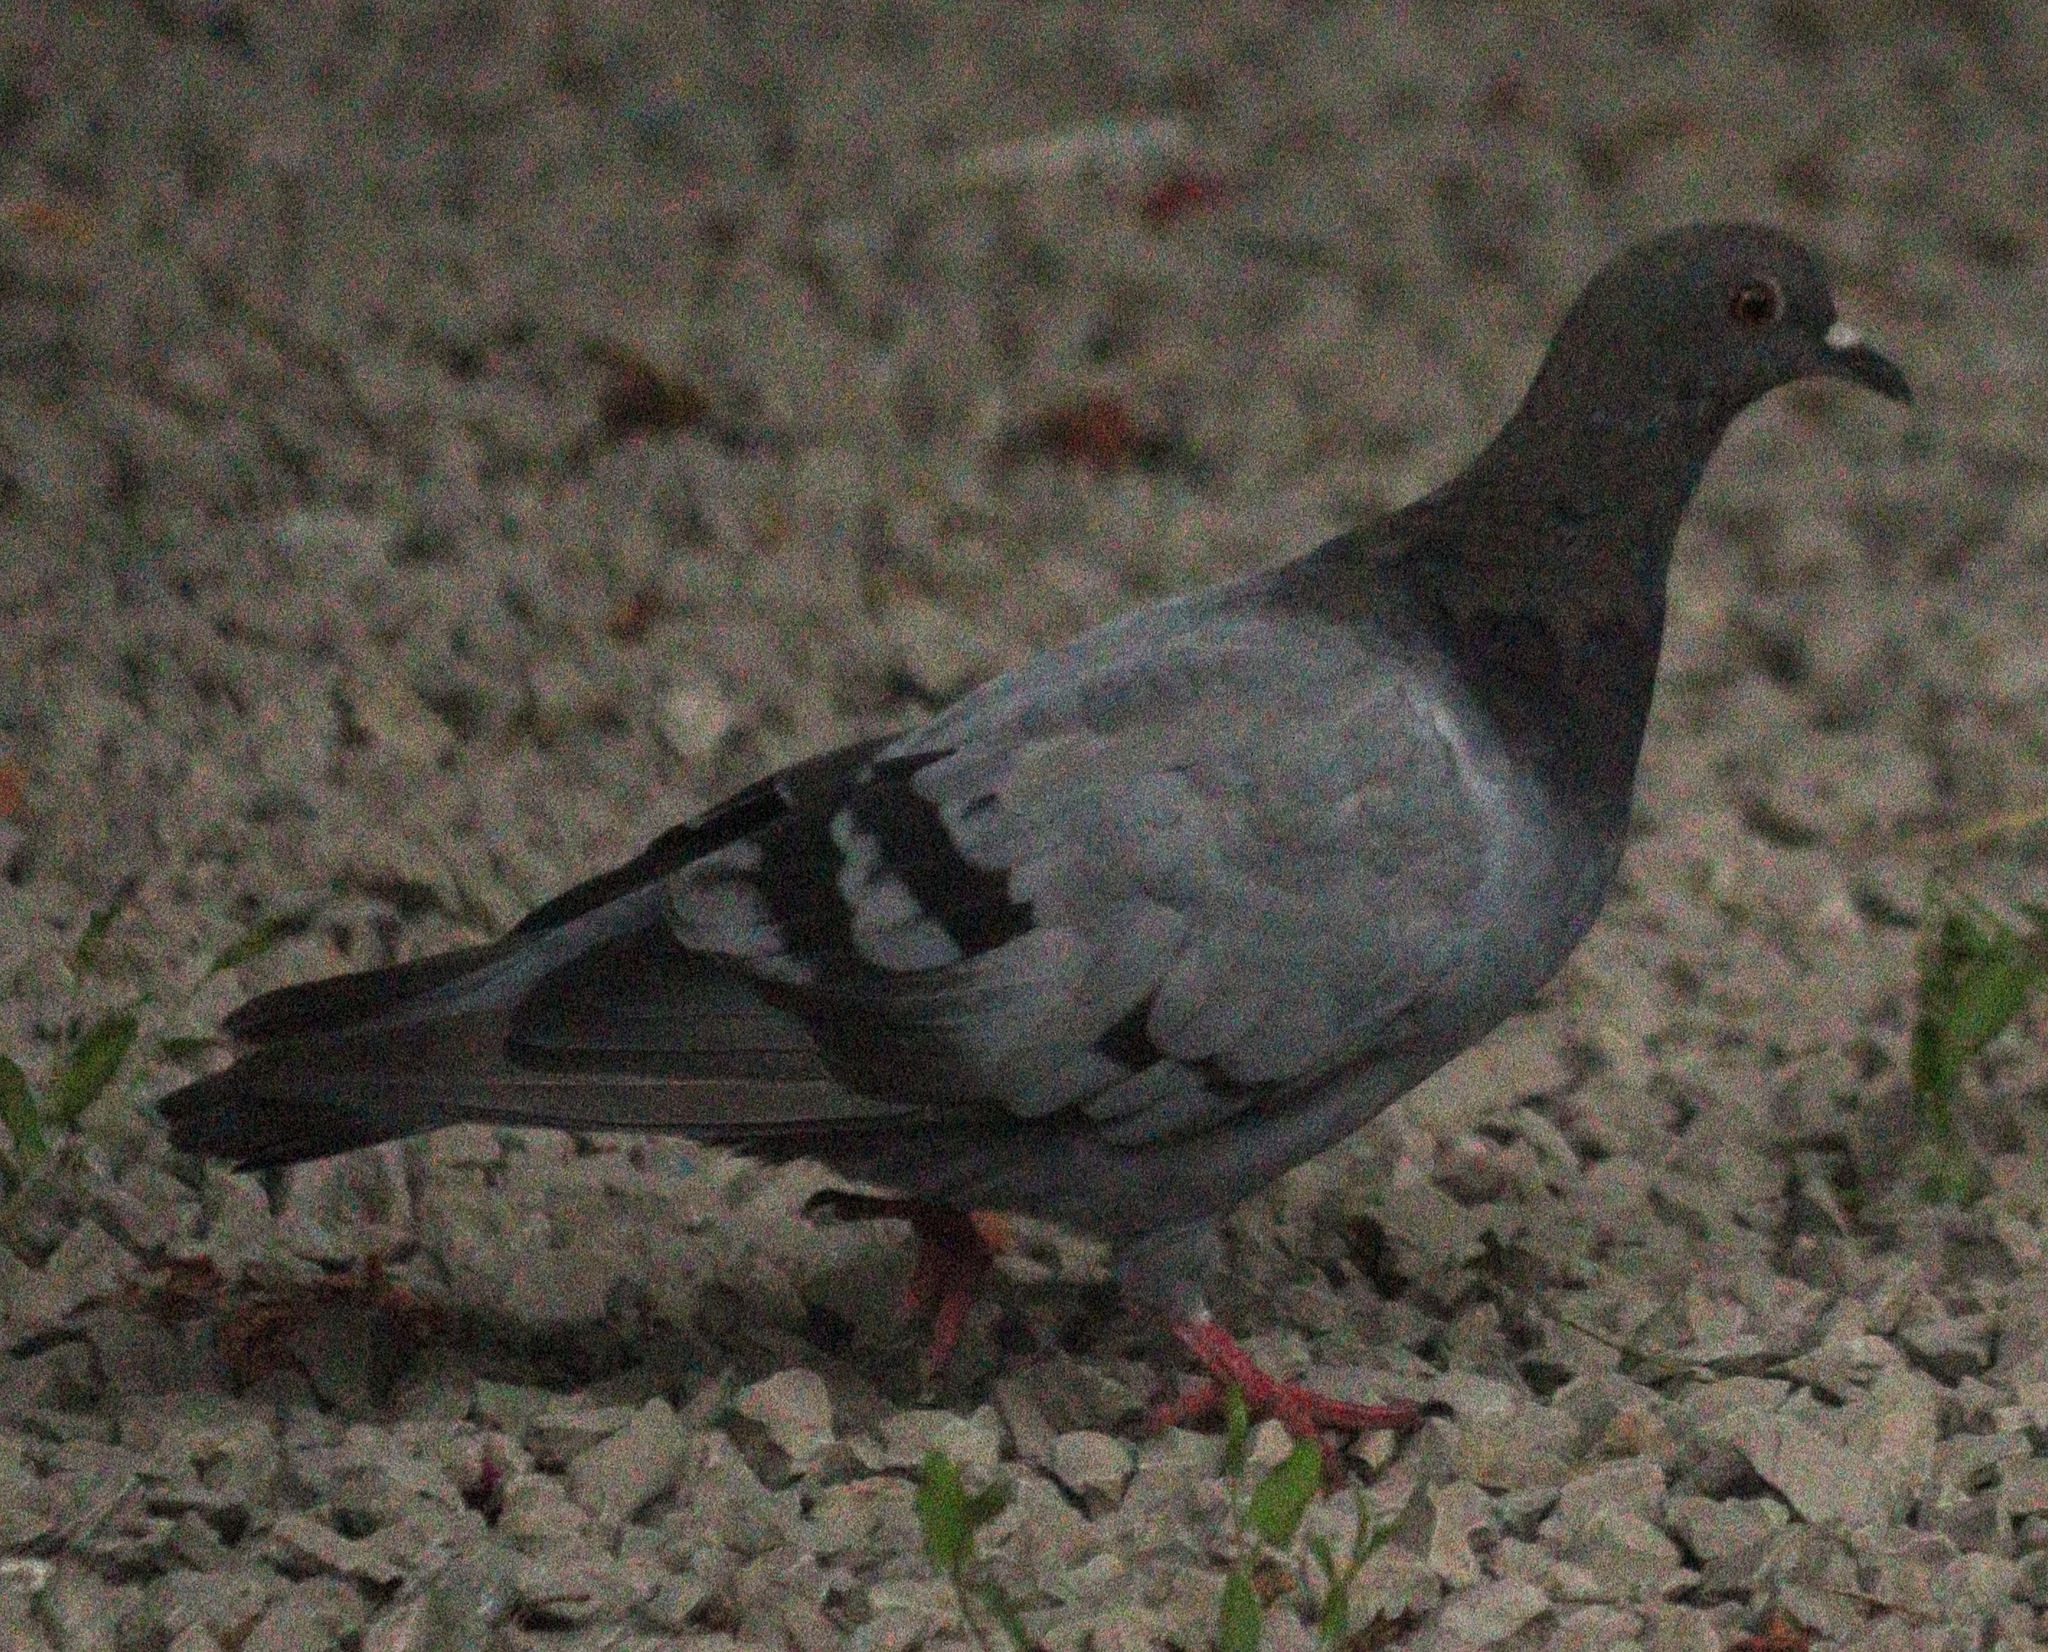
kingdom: Animalia
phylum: Chordata
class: Aves
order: Columbiformes
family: Columbidae
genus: Columba
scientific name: Columba livia
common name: Rock pigeon
